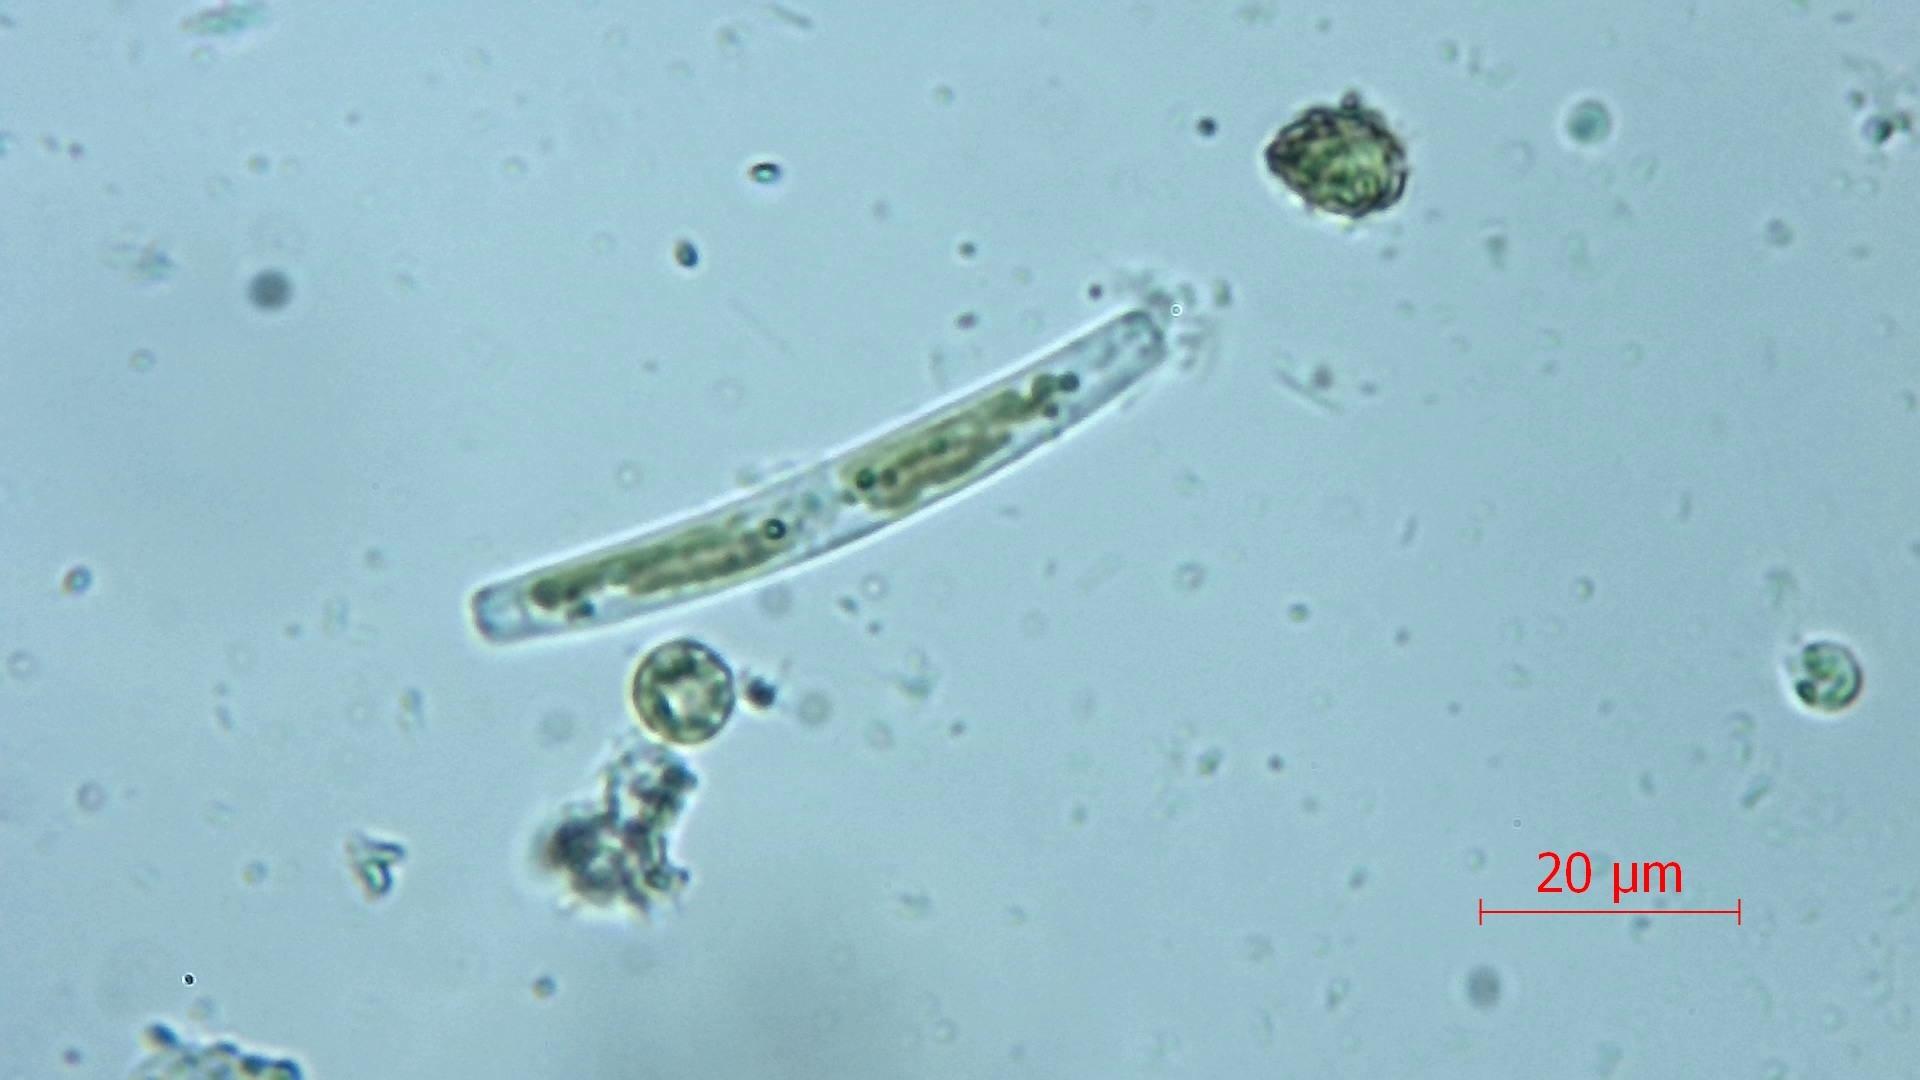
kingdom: Chromista
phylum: Ochrophyta
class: Bacillariophyceae
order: Eunotiales
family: Eunotiaceae
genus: Eunotia
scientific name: Eunotia
